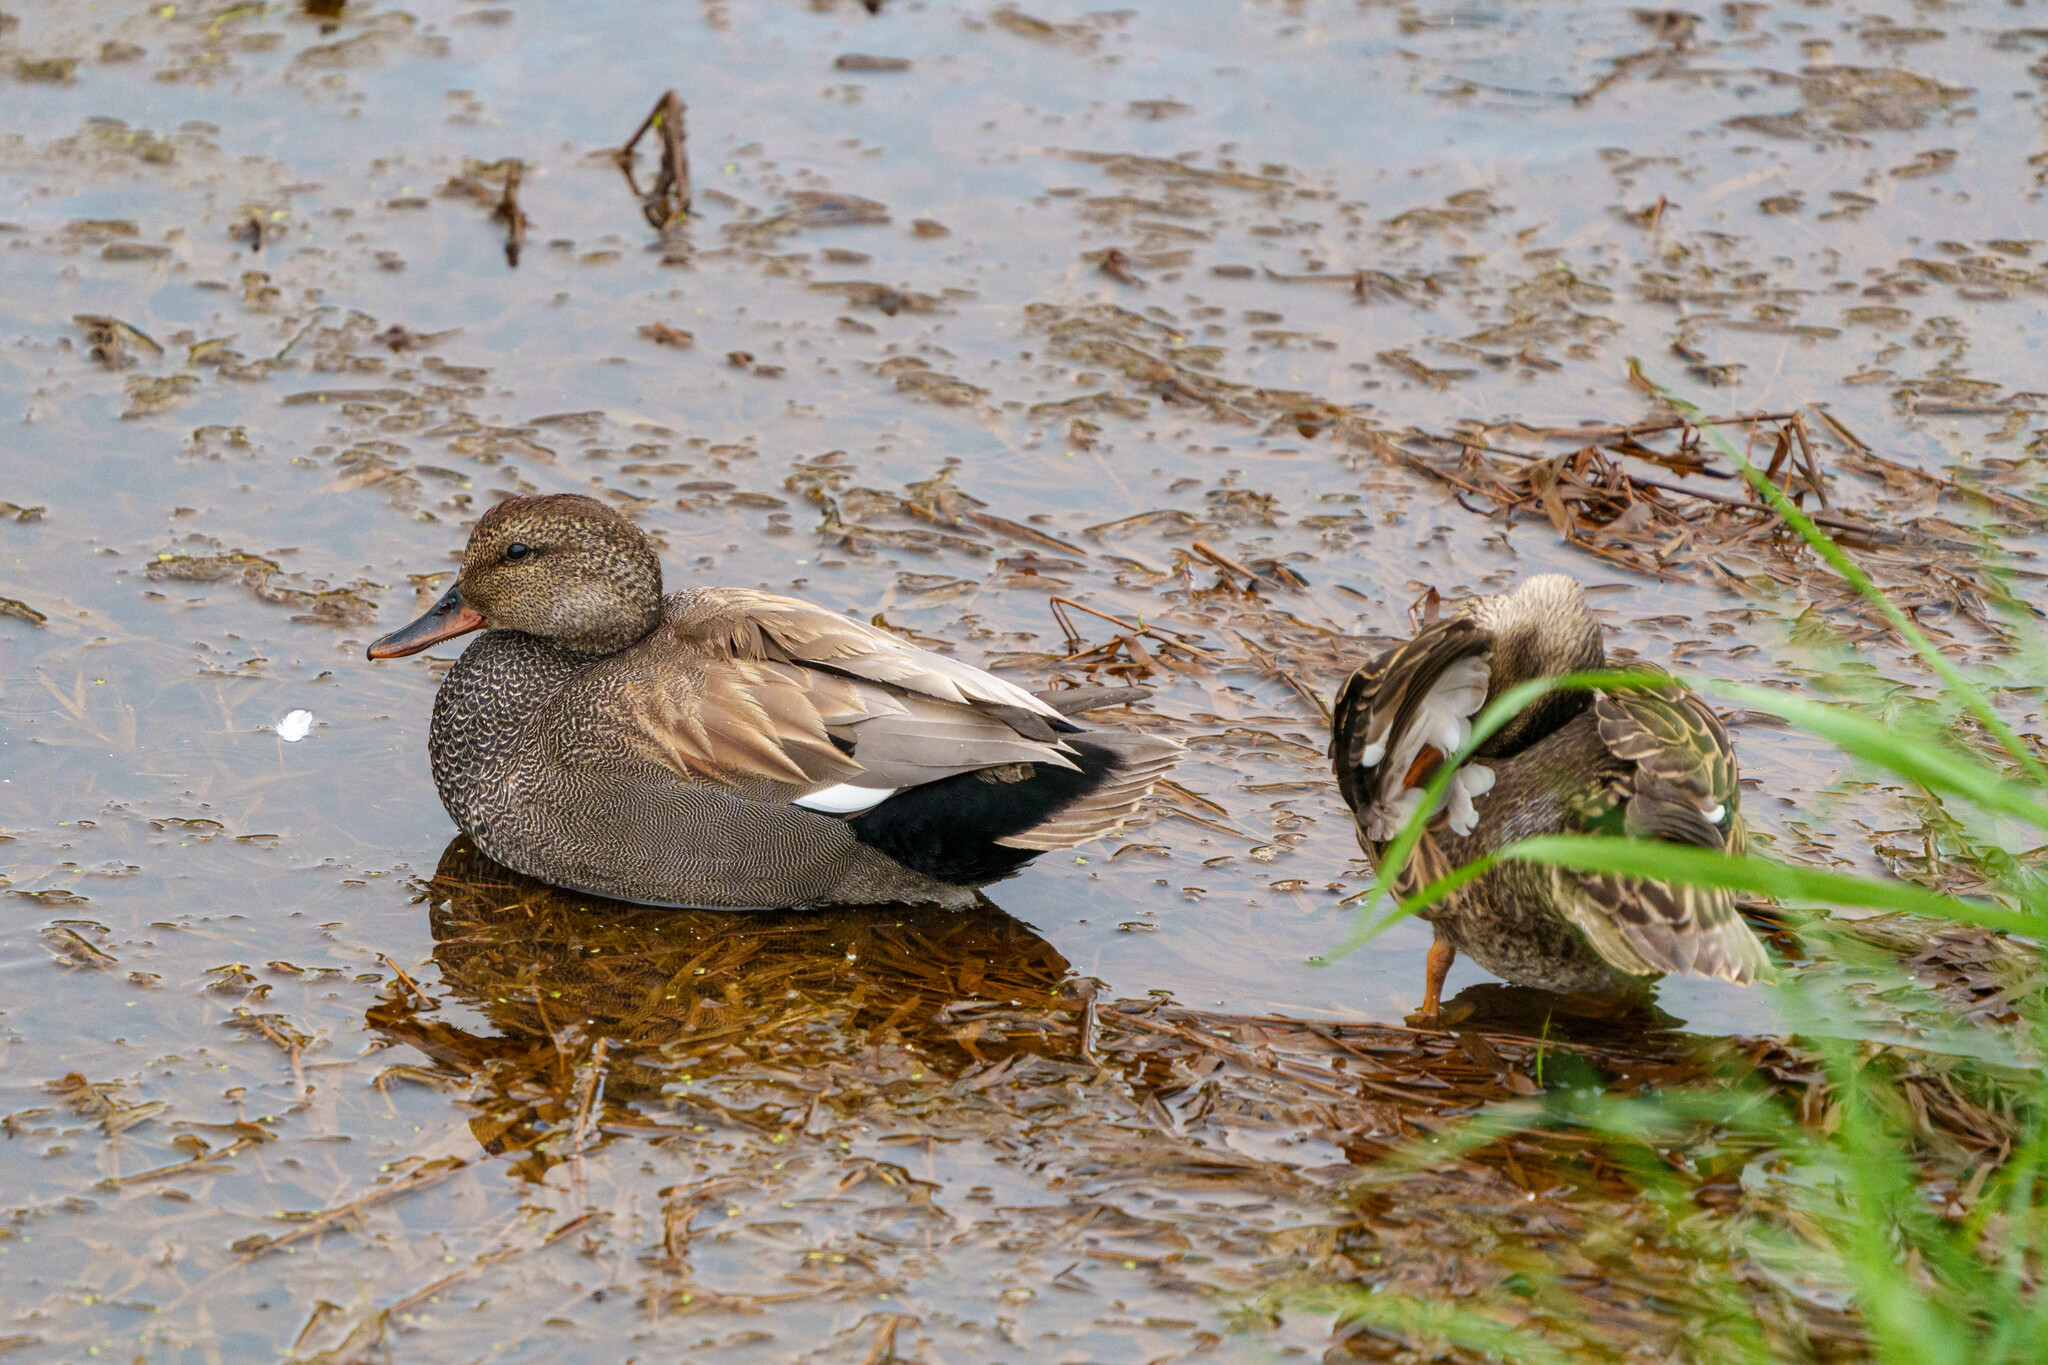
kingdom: Animalia
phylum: Chordata
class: Aves
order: Anseriformes
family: Anatidae
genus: Mareca
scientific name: Mareca strepera
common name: Gadwall
